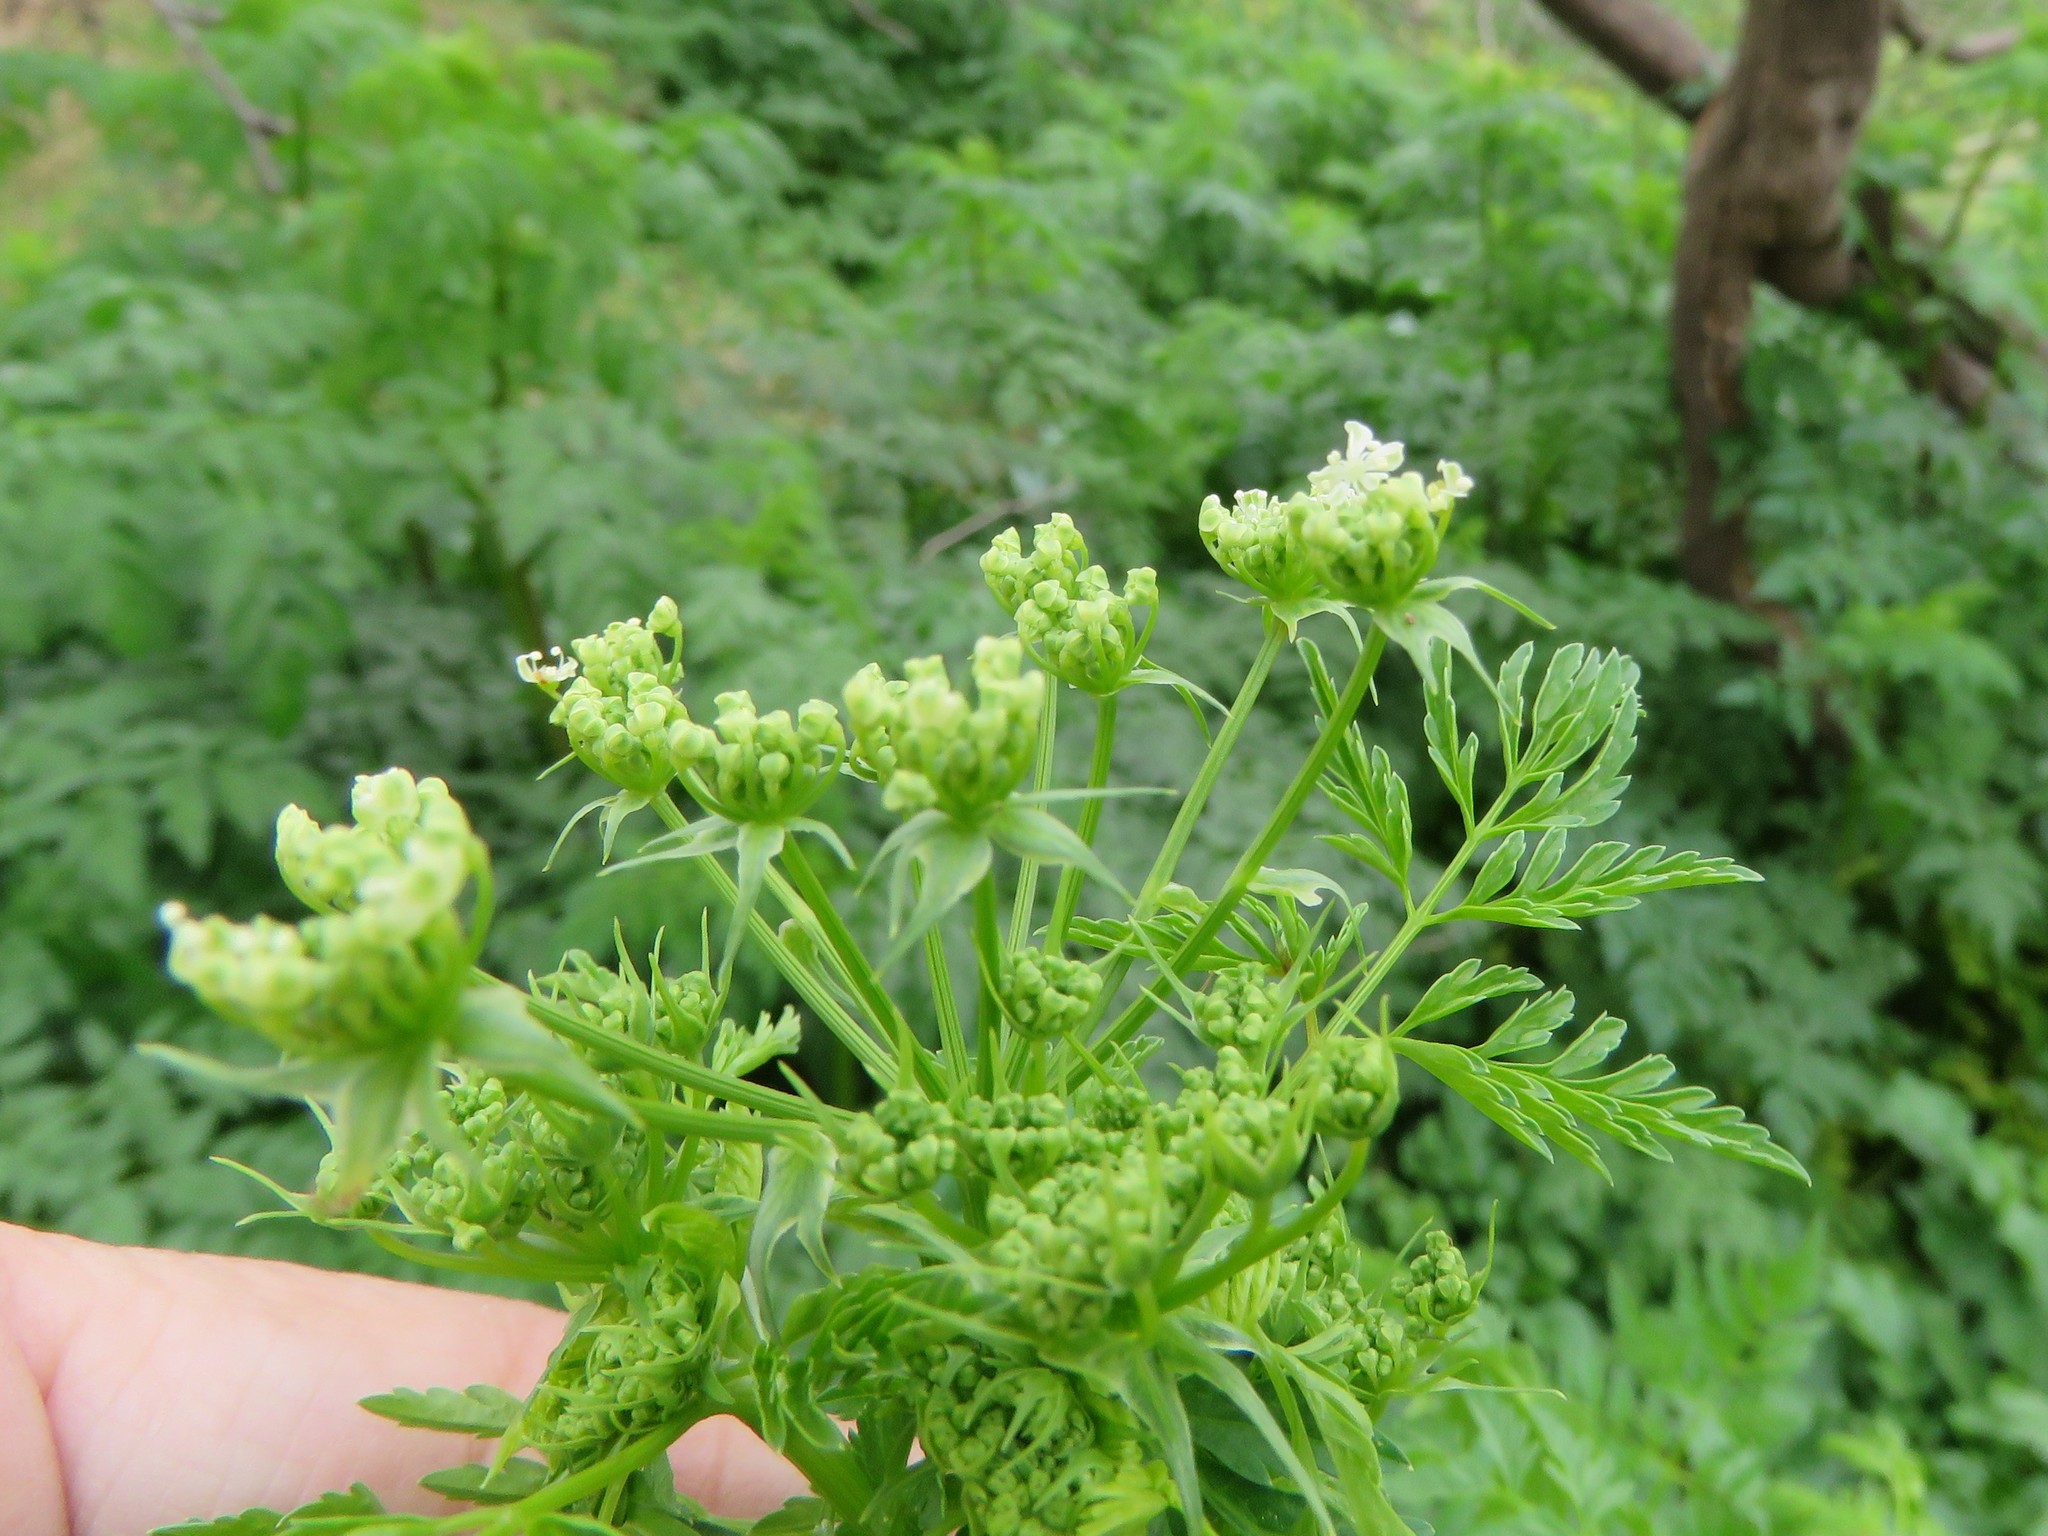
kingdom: Plantae
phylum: Tracheophyta
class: Magnoliopsida
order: Apiales
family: Apiaceae
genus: Conium
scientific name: Conium maculatum
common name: Hemlock
